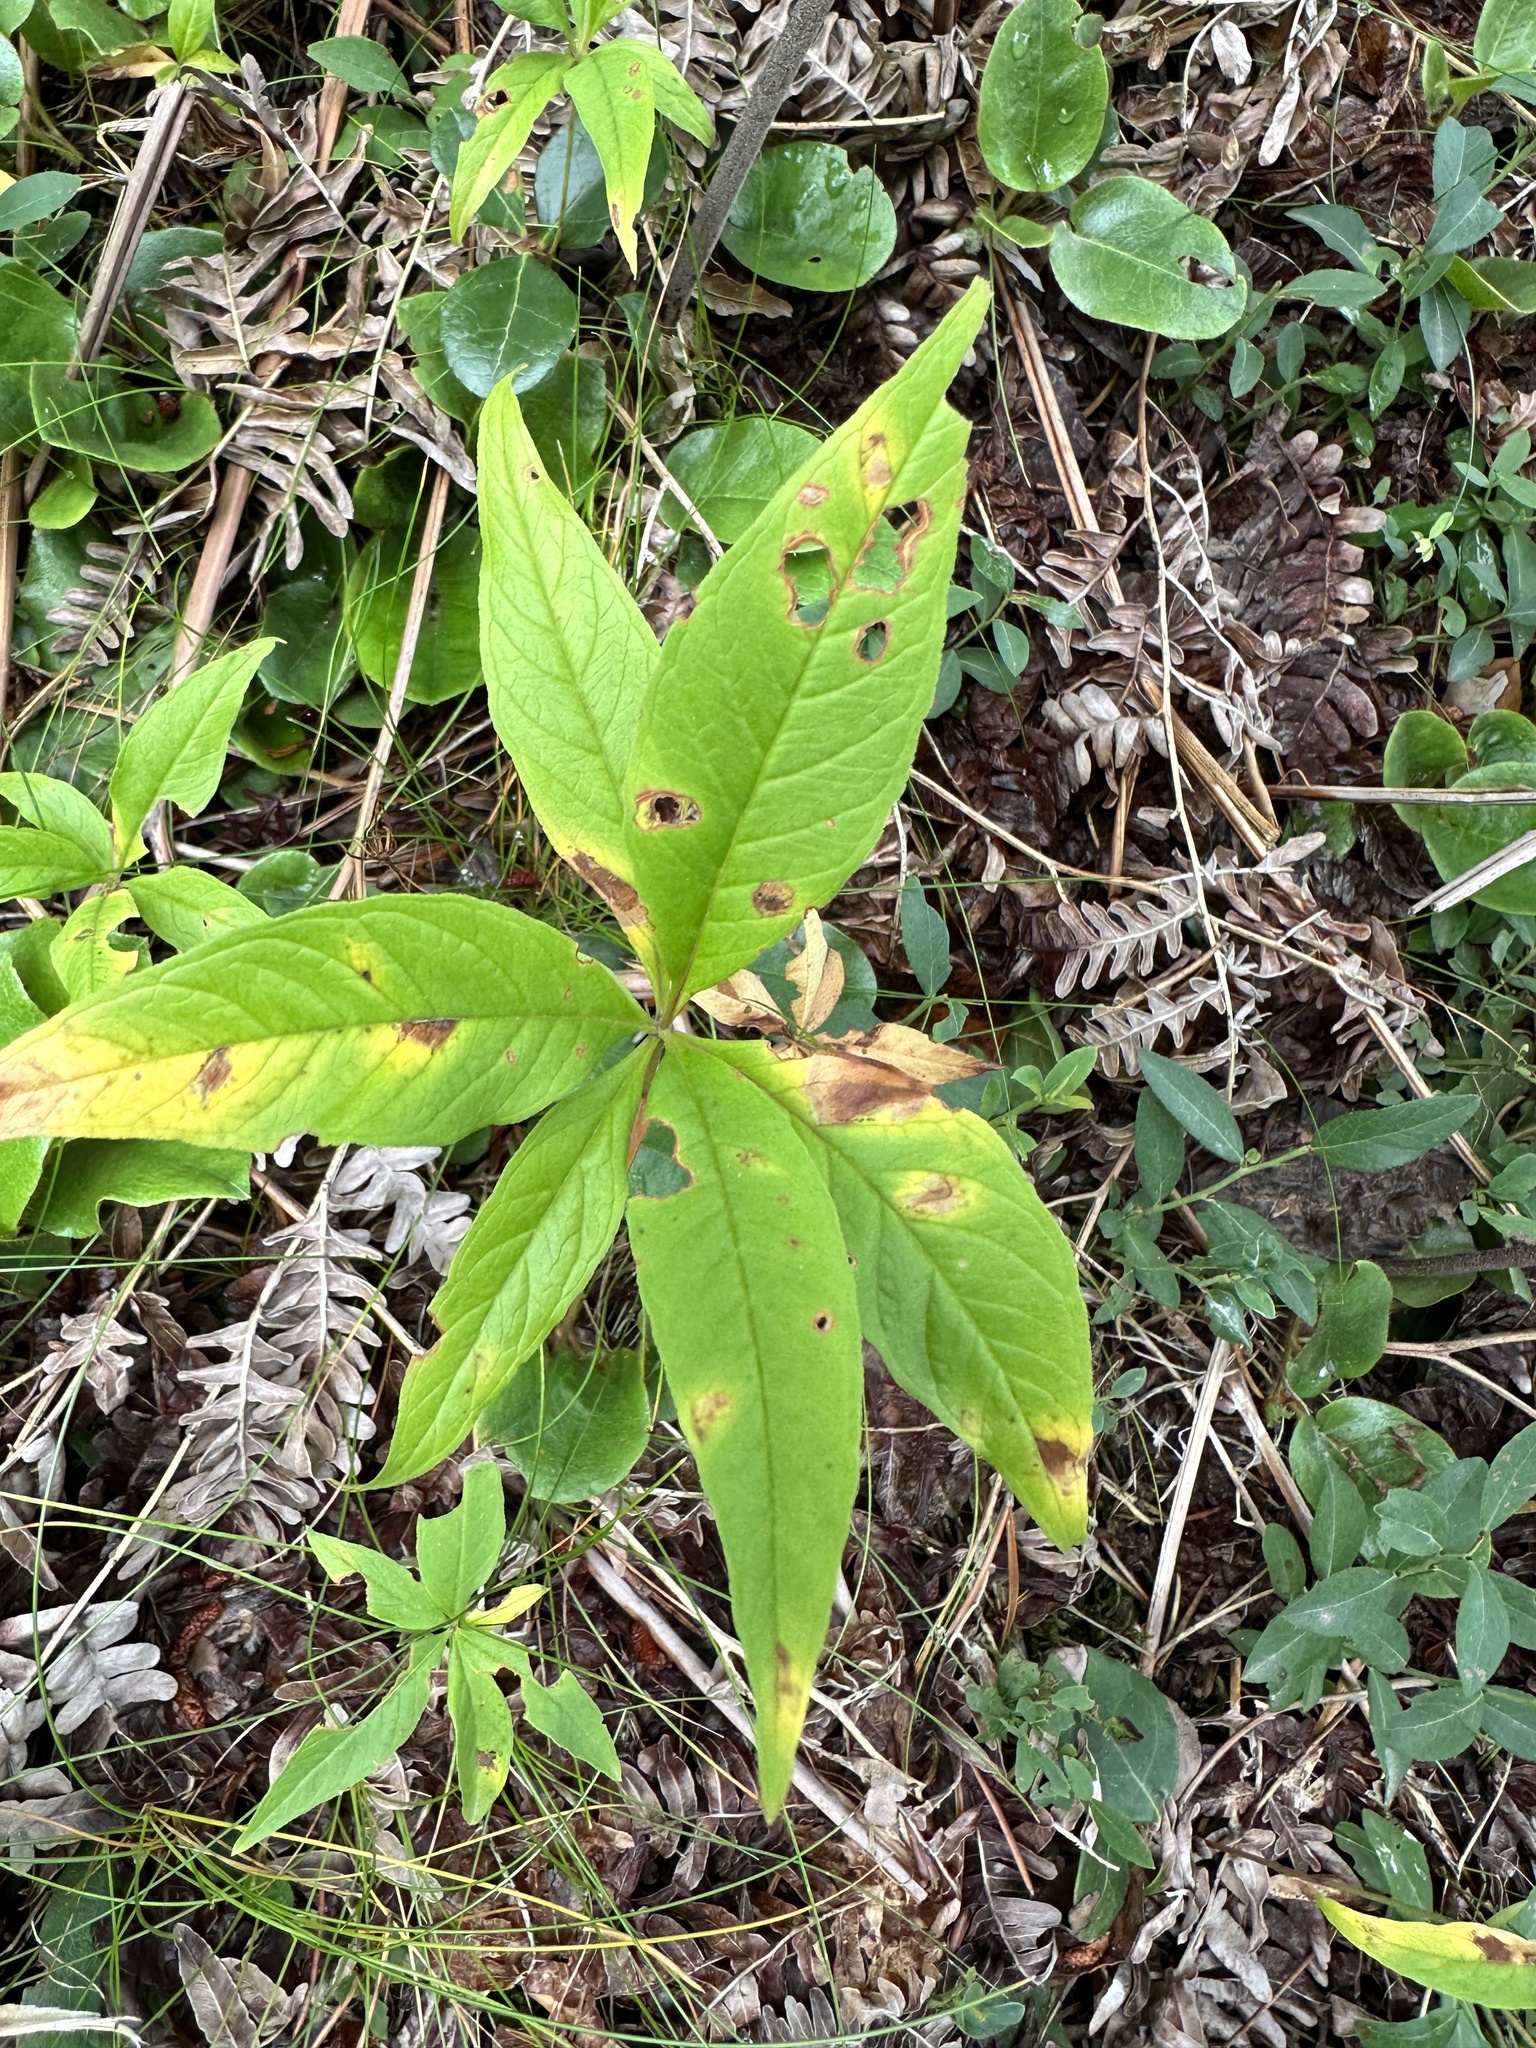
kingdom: Plantae
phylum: Tracheophyta
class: Magnoliopsida
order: Ericales
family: Primulaceae
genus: Lysimachia
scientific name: Lysimachia borealis
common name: American starflower
